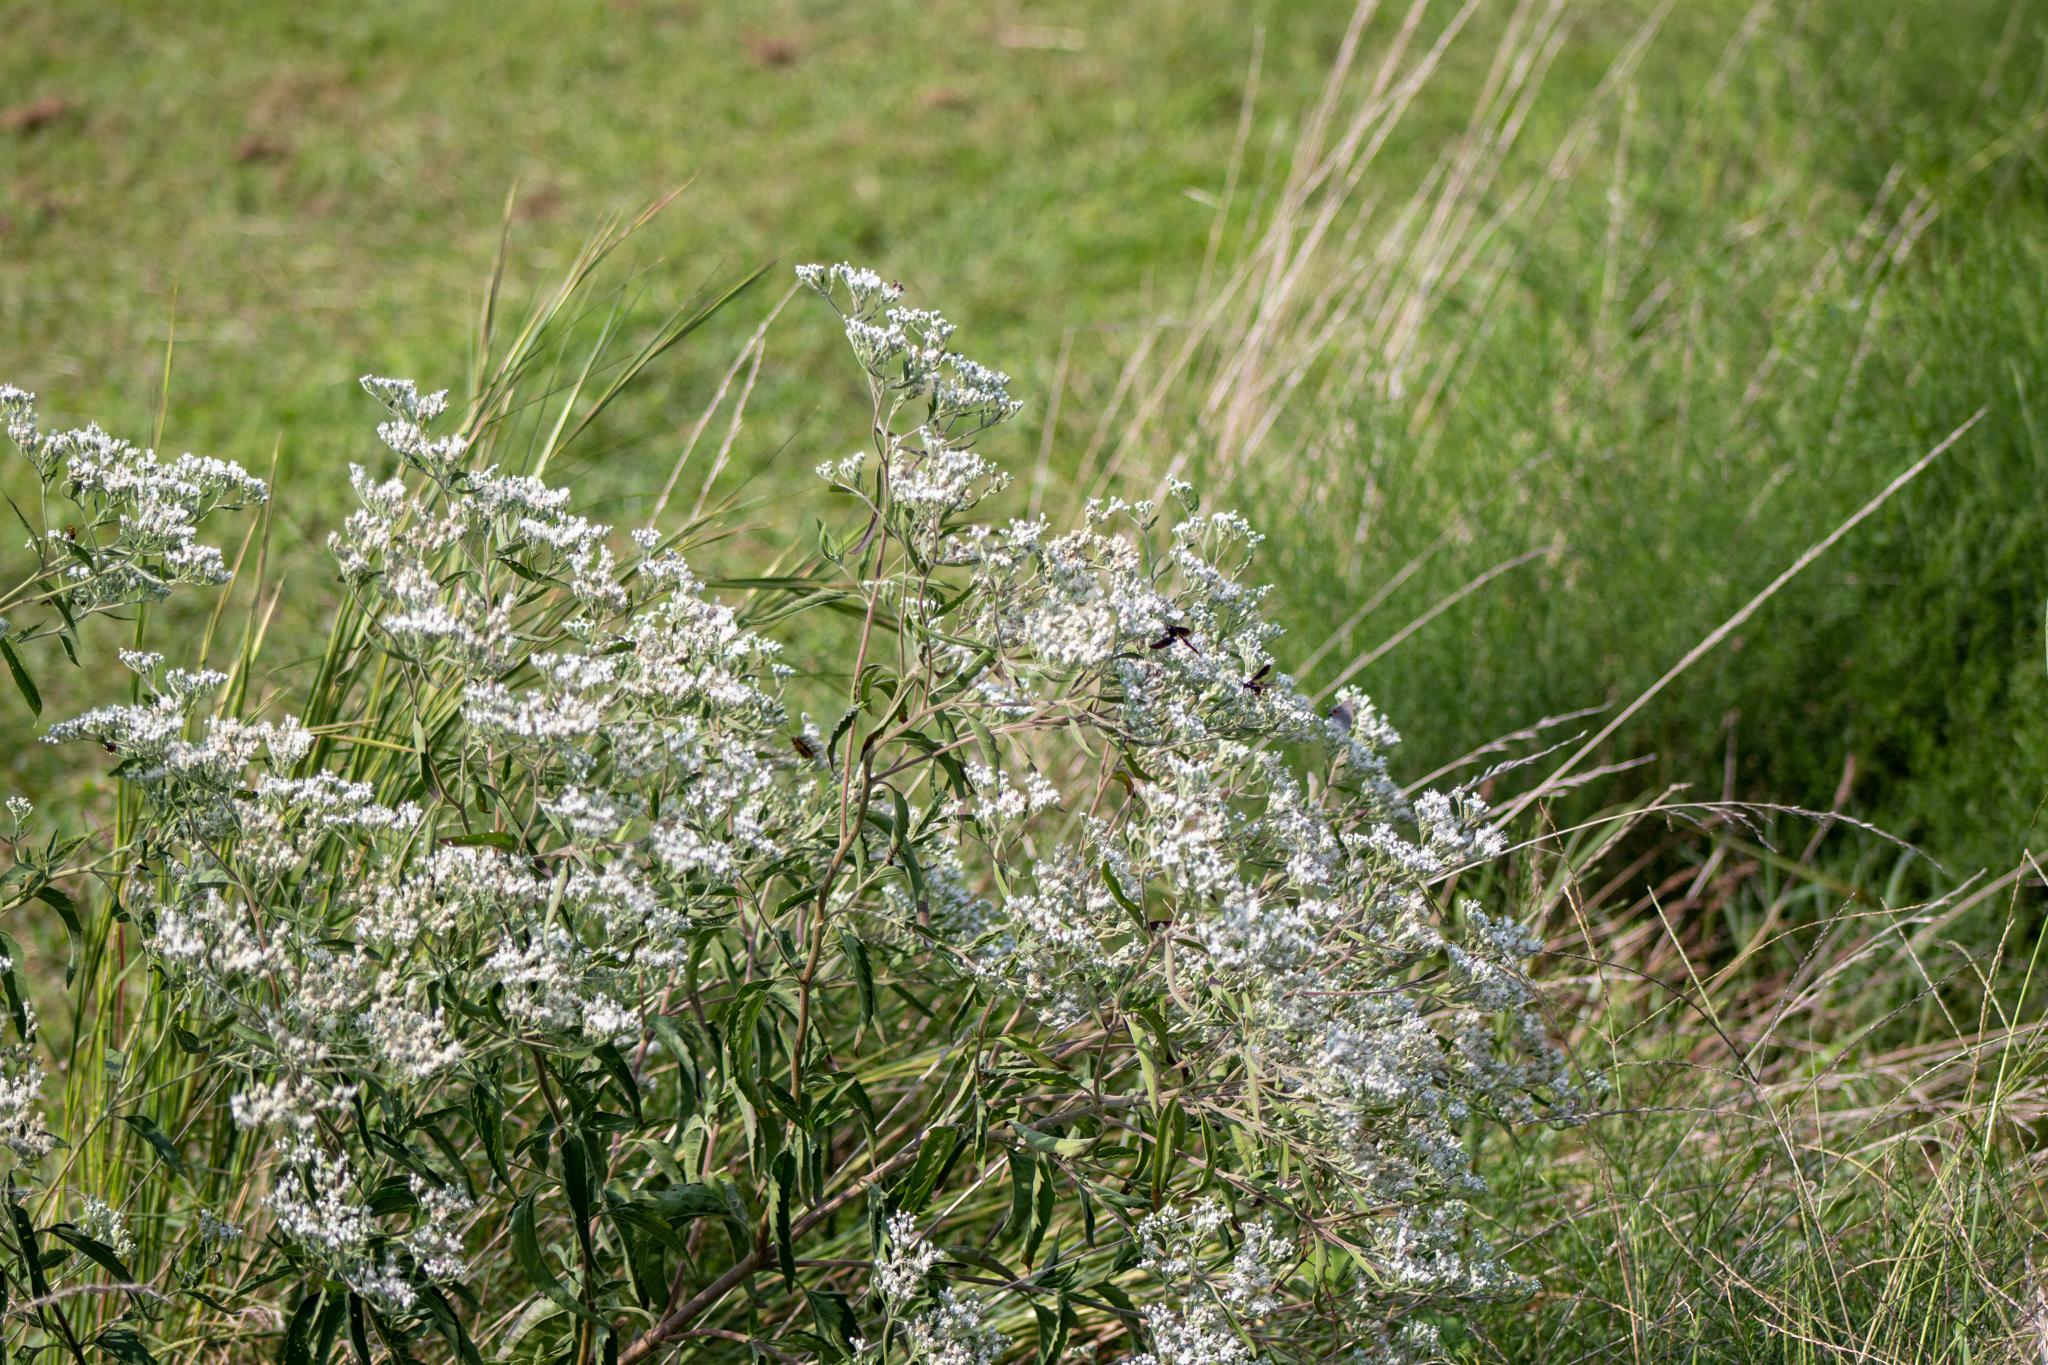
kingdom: Plantae
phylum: Tracheophyta
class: Magnoliopsida
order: Asterales
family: Asteraceae
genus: Eupatorium
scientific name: Eupatorium serotinum
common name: Late boneset
